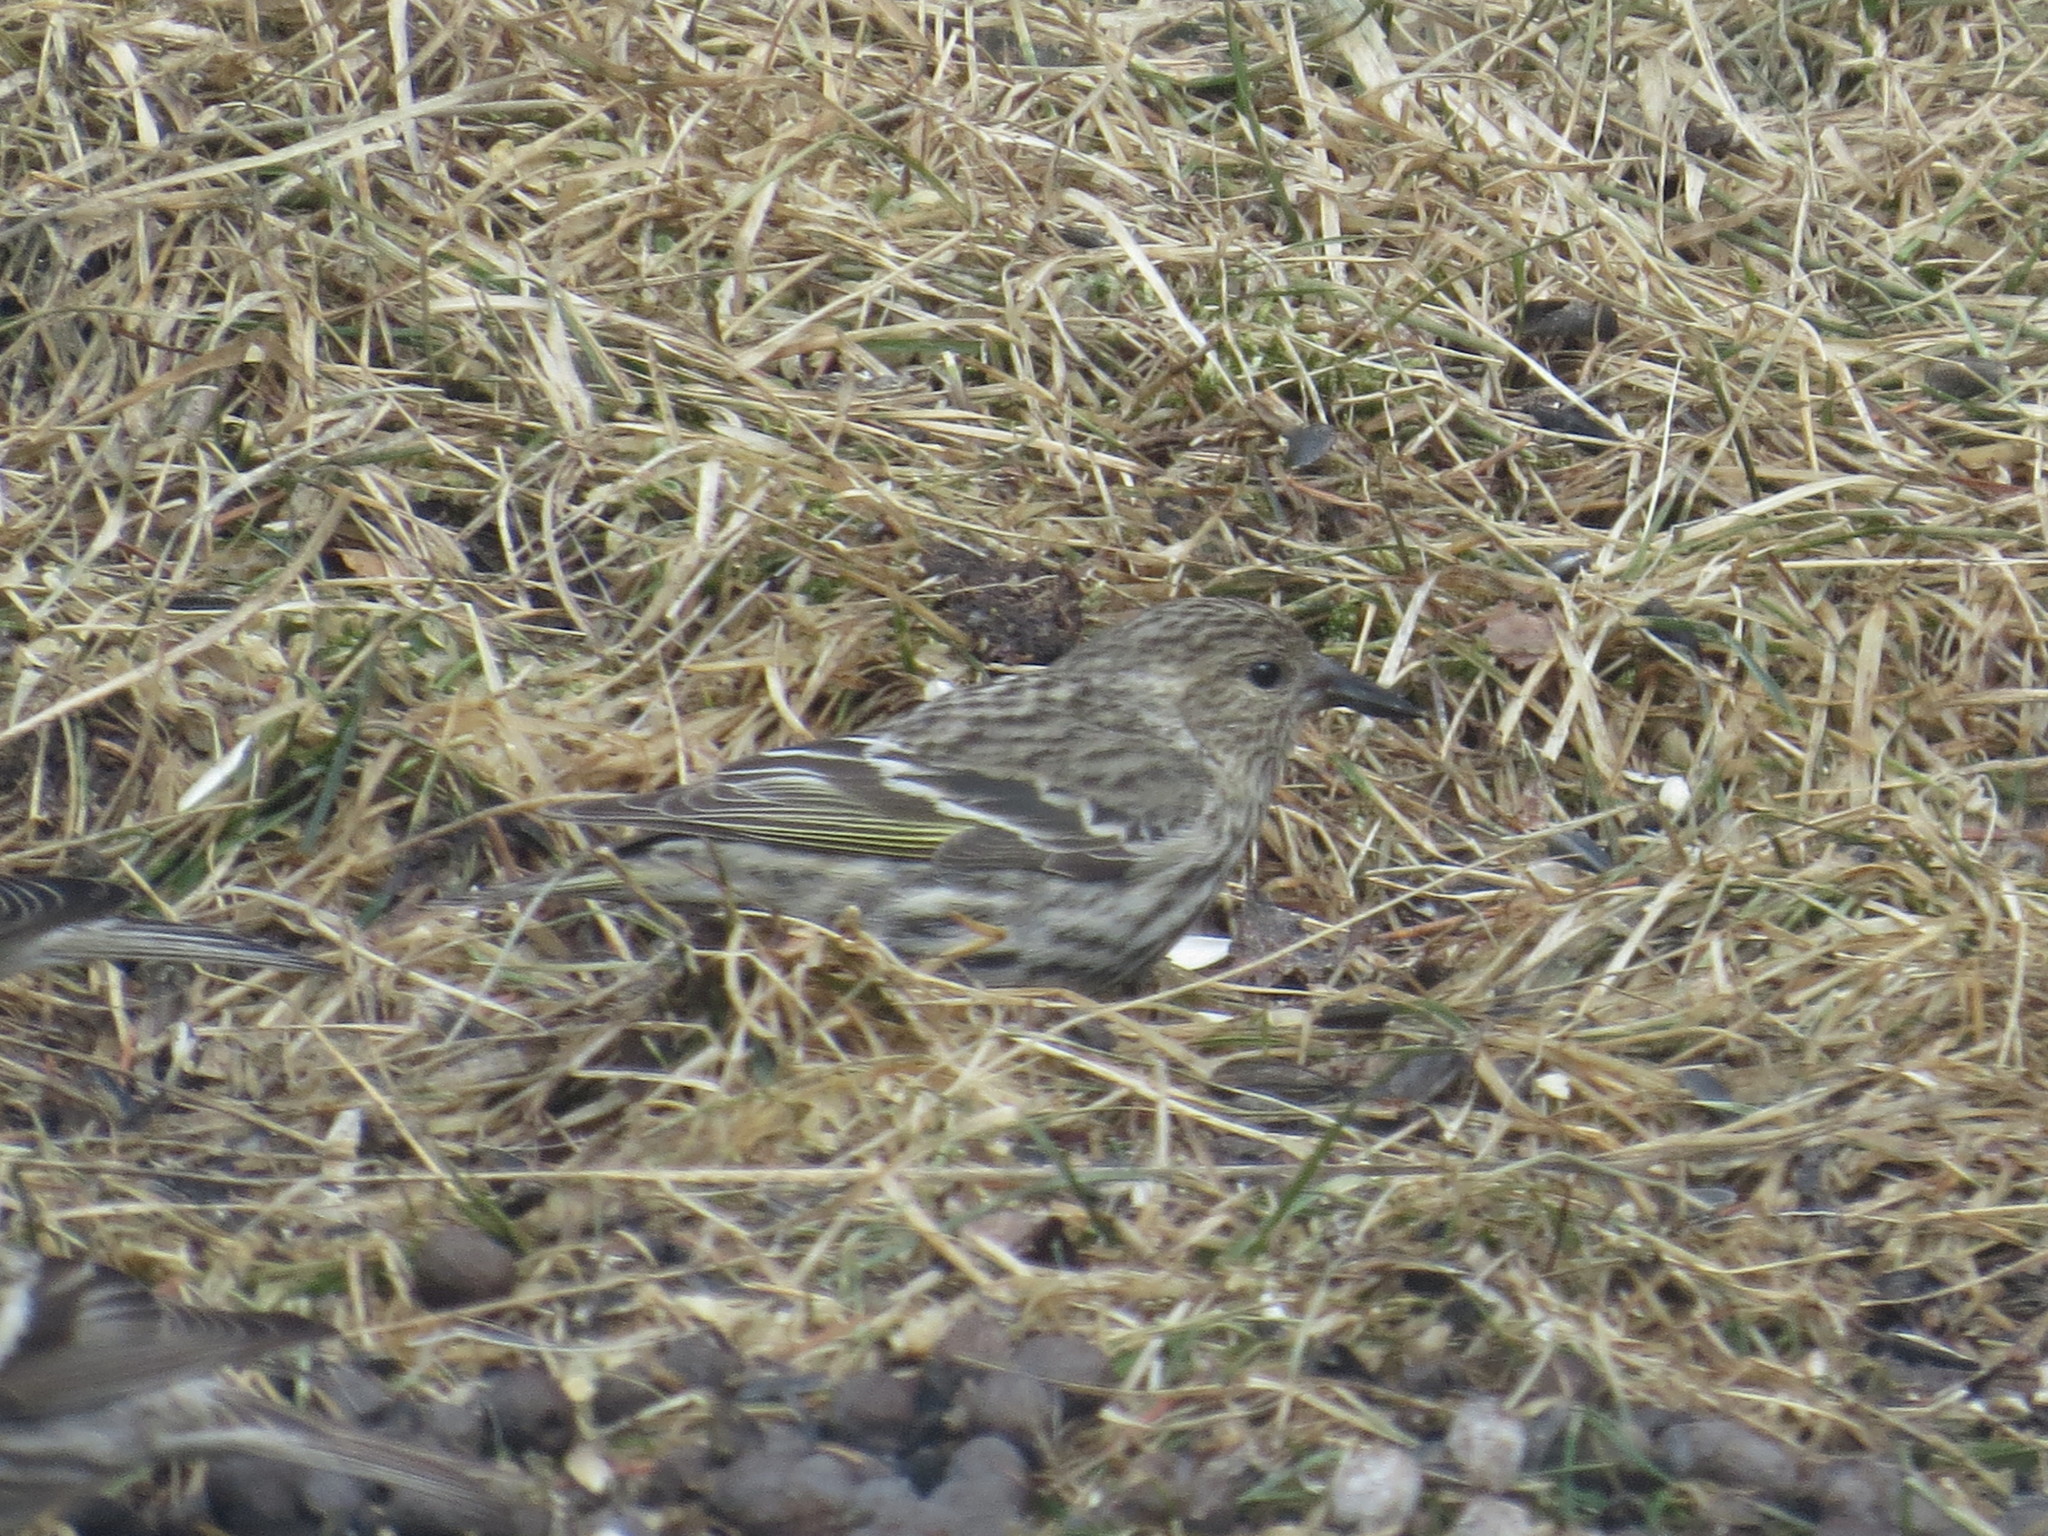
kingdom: Animalia
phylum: Chordata
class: Aves
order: Passeriformes
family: Fringillidae
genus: Spinus
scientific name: Spinus pinus
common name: Pine siskin
